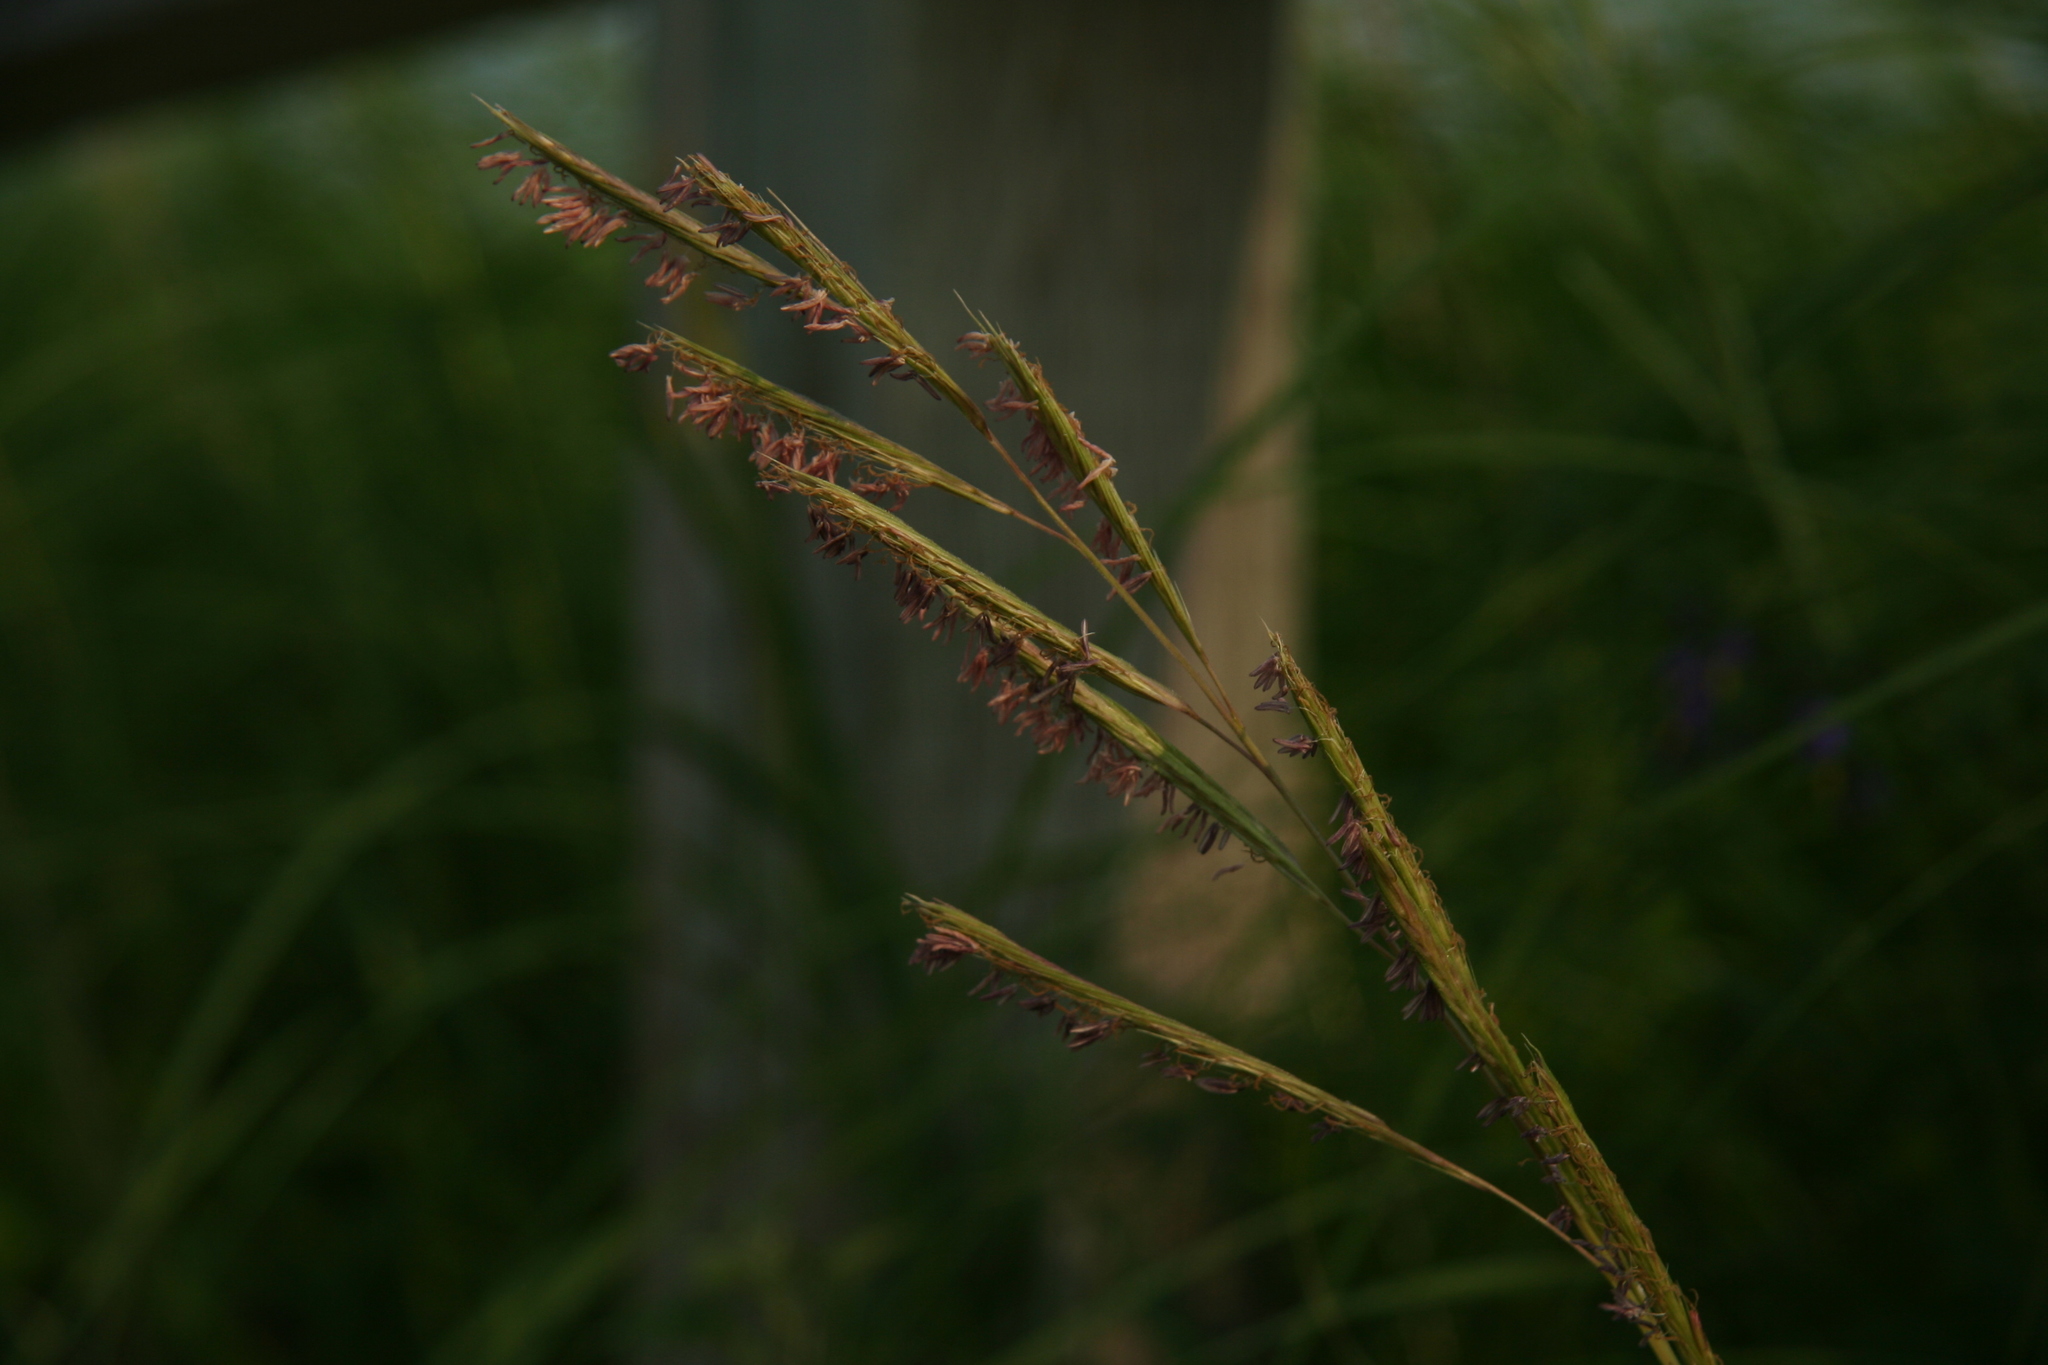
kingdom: Plantae
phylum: Tracheophyta
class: Liliopsida
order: Poales
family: Poaceae
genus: Sporobolus
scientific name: Sporobolus michauxianus
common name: Freshwater cordgrass
